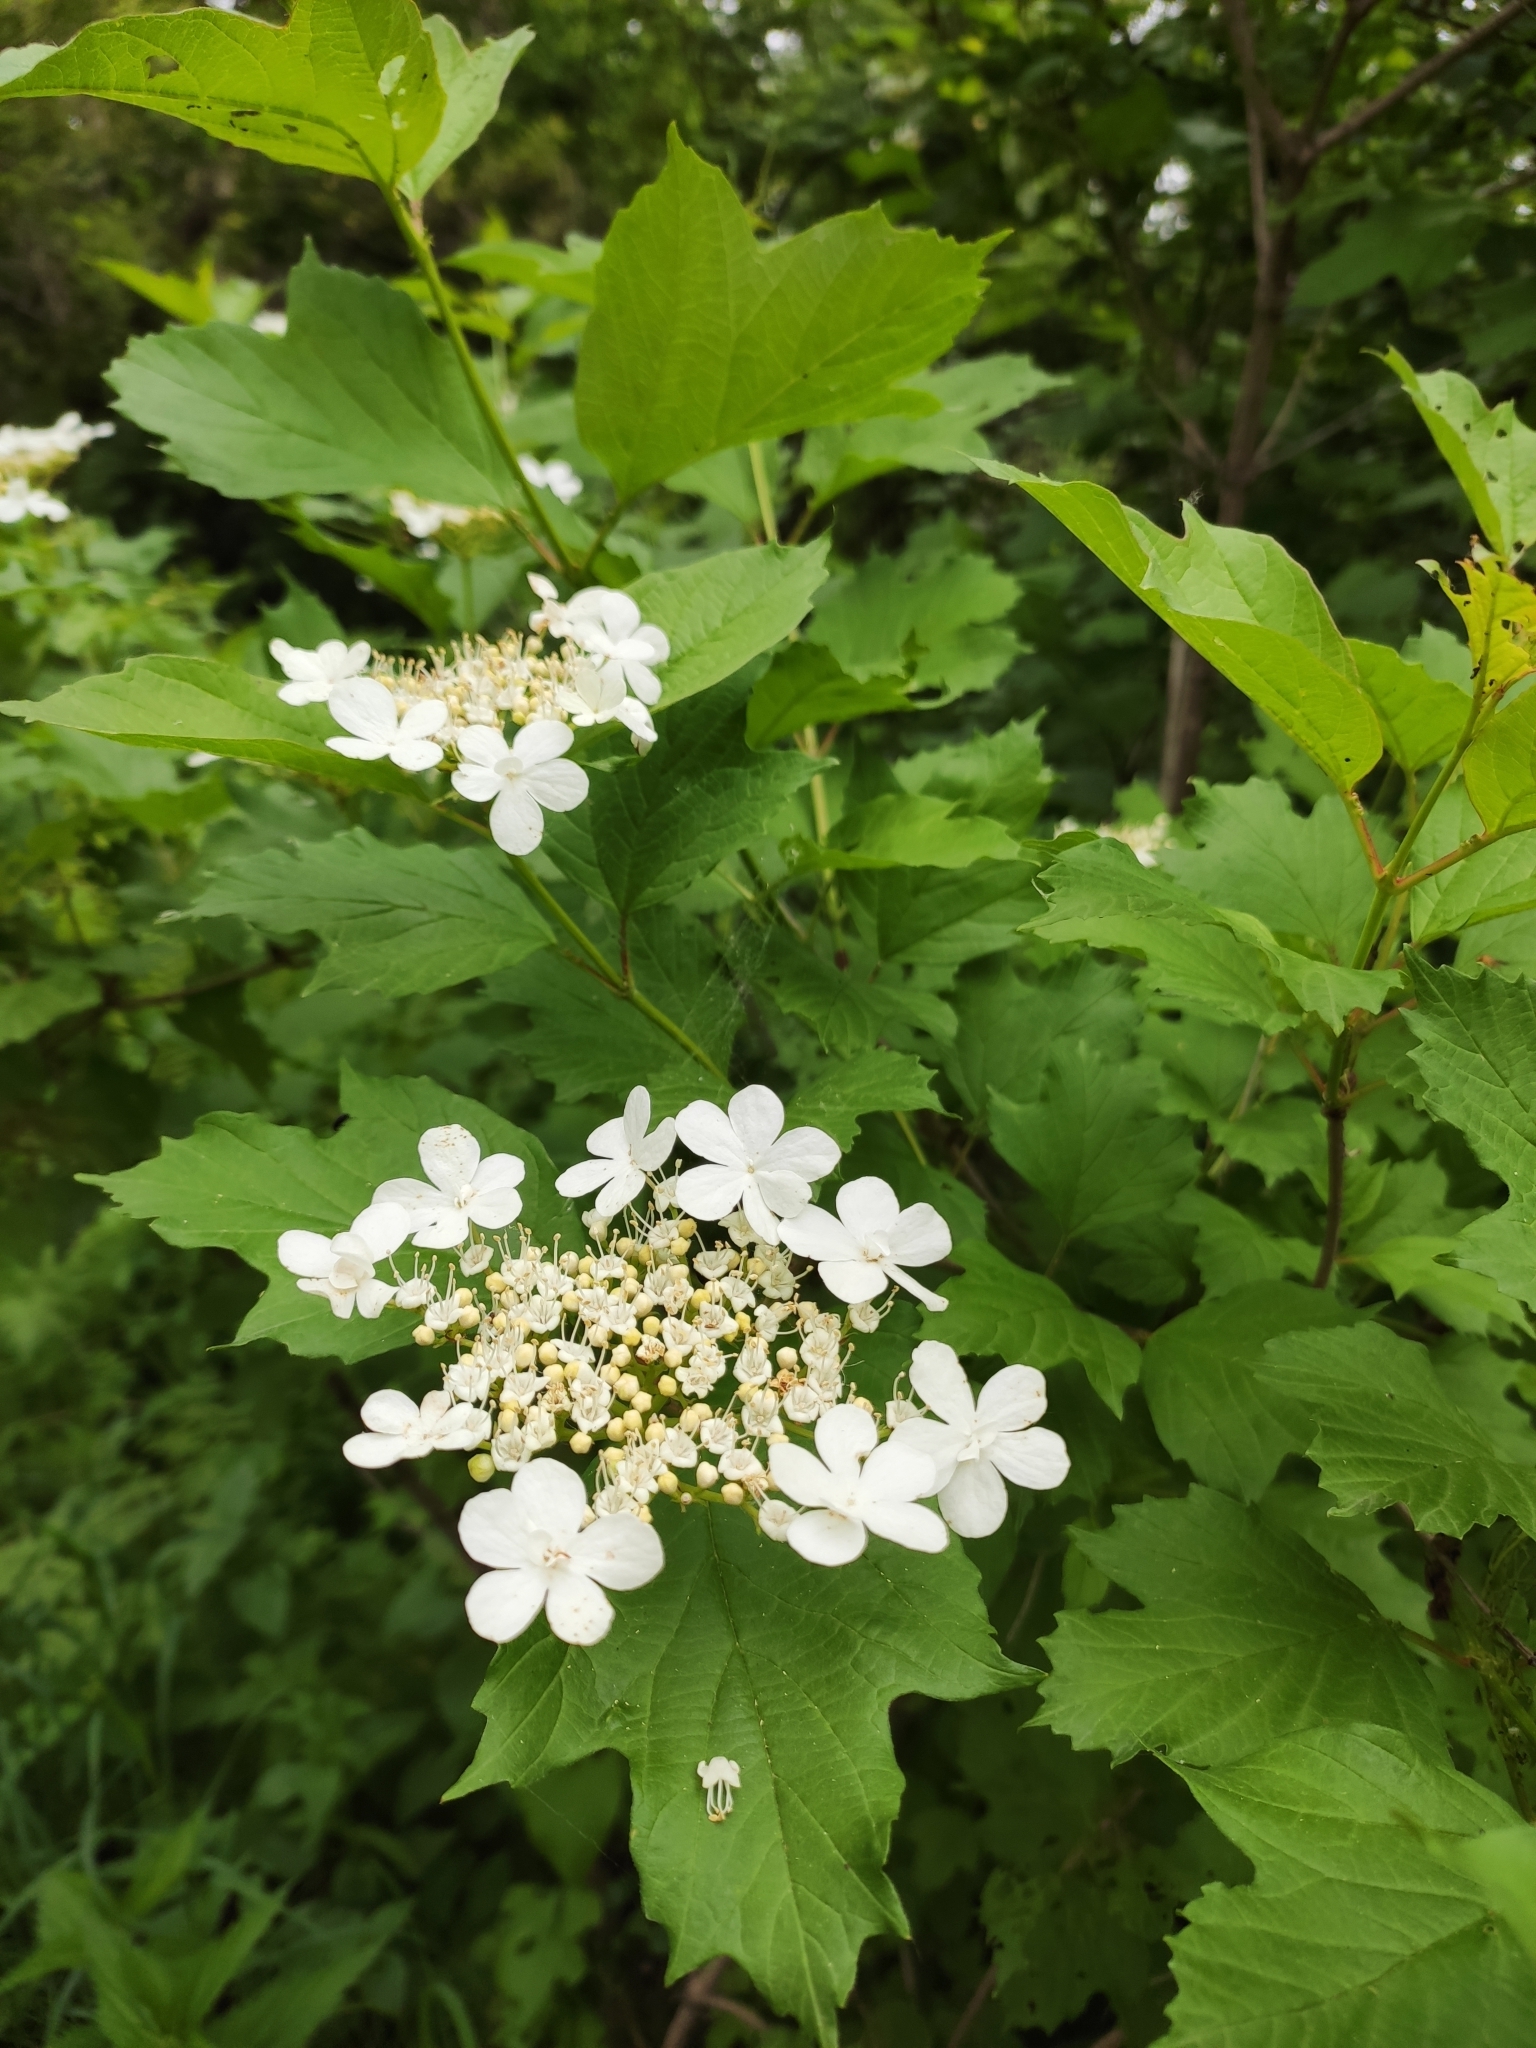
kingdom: Plantae
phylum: Tracheophyta
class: Magnoliopsida
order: Dipsacales
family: Viburnaceae
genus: Viburnum
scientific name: Viburnum opulus
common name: Guelder-rose
